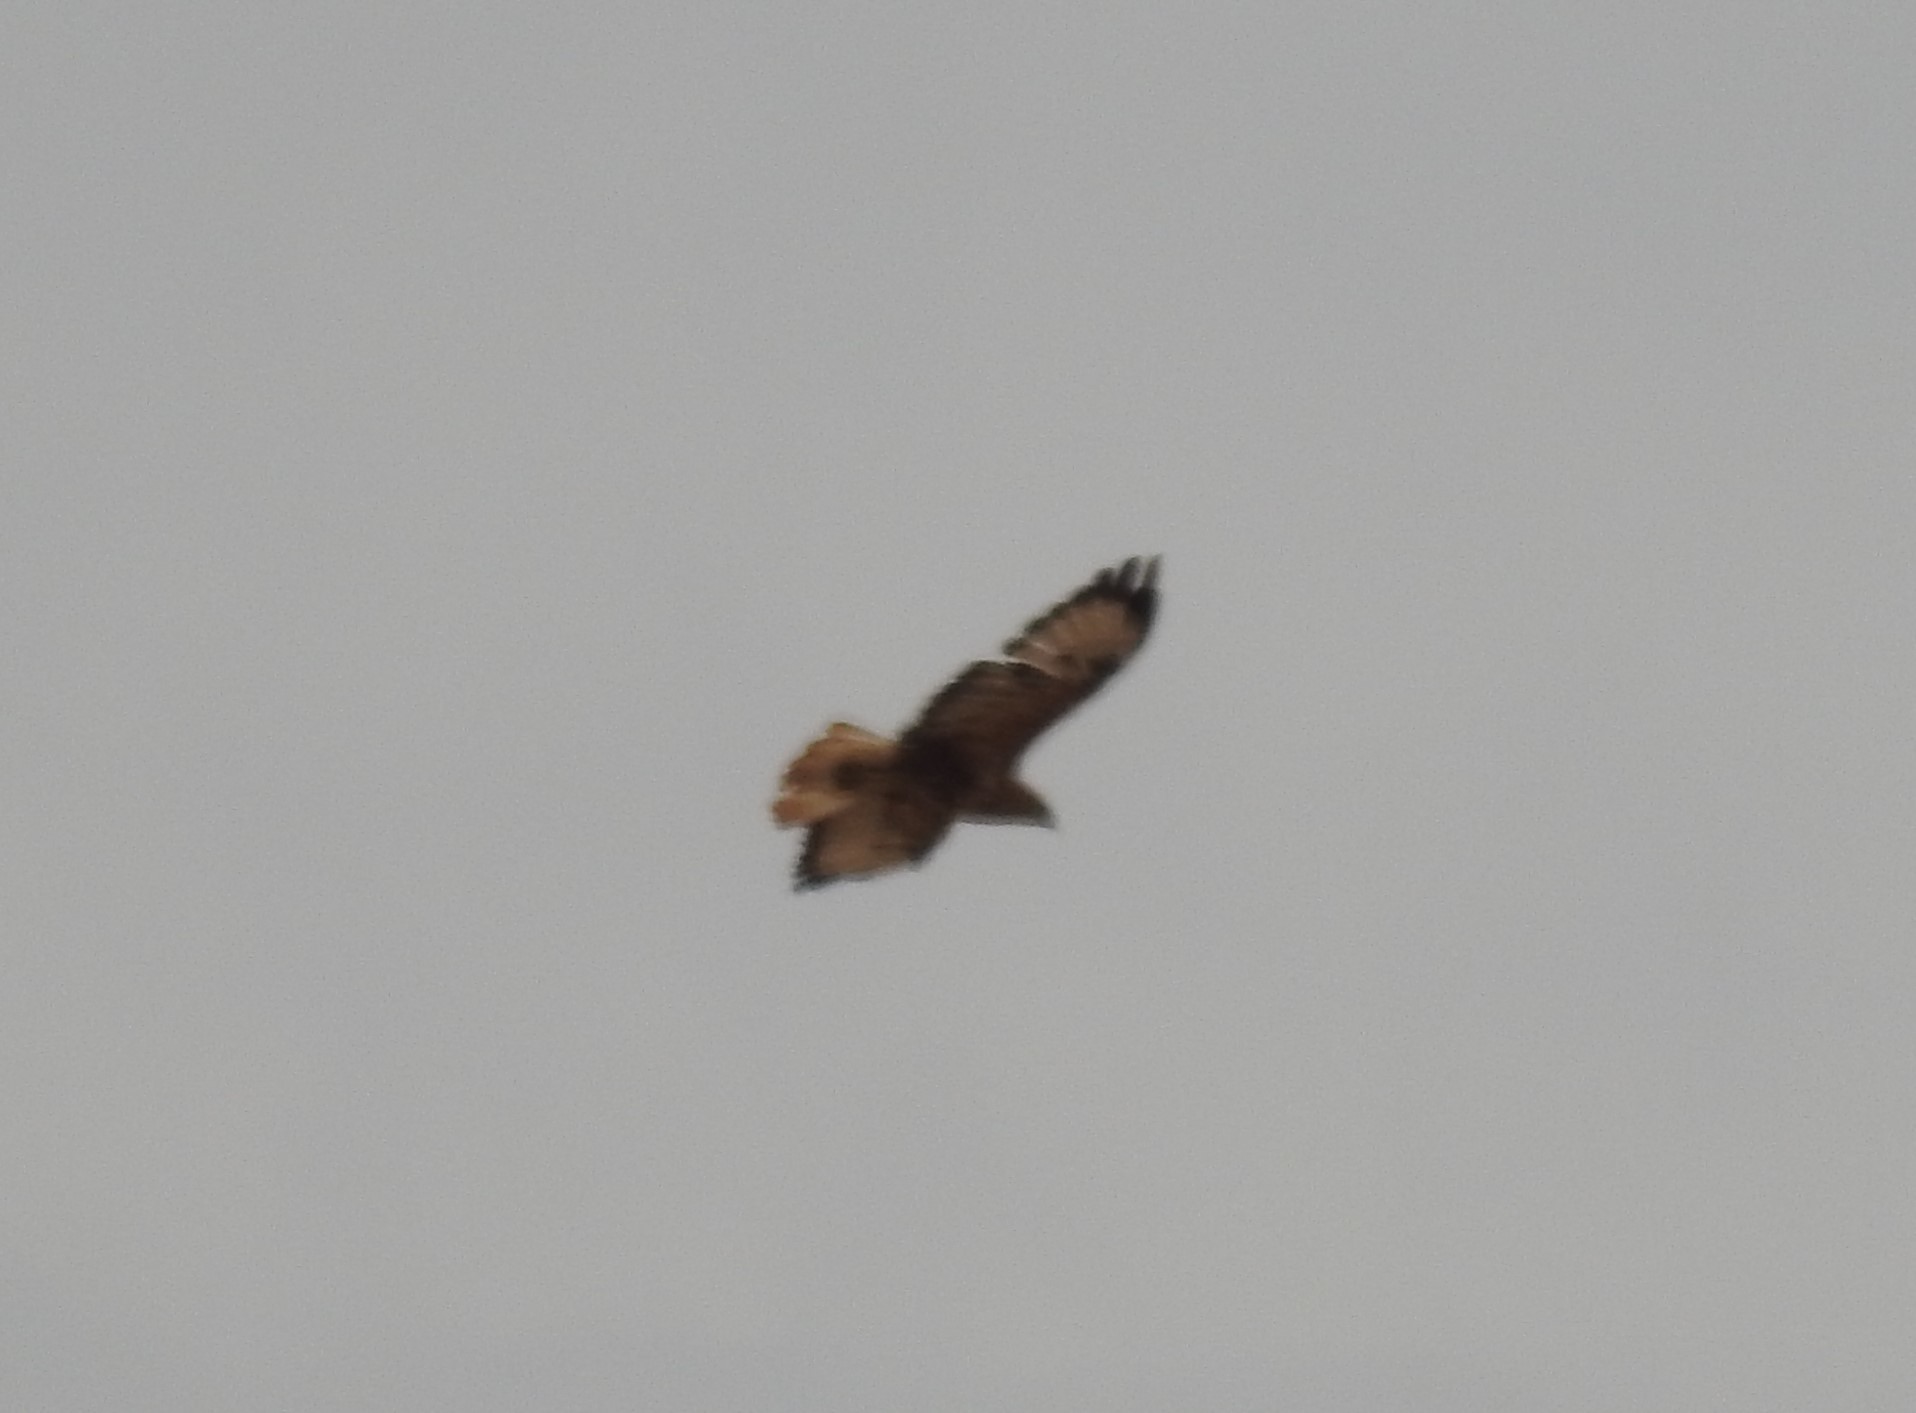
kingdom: Animalia
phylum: Chordata
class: Aves
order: Accipitriformes
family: Accipitridae
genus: Buteo
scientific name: Buteo rufinus
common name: Long-legged buzzard
